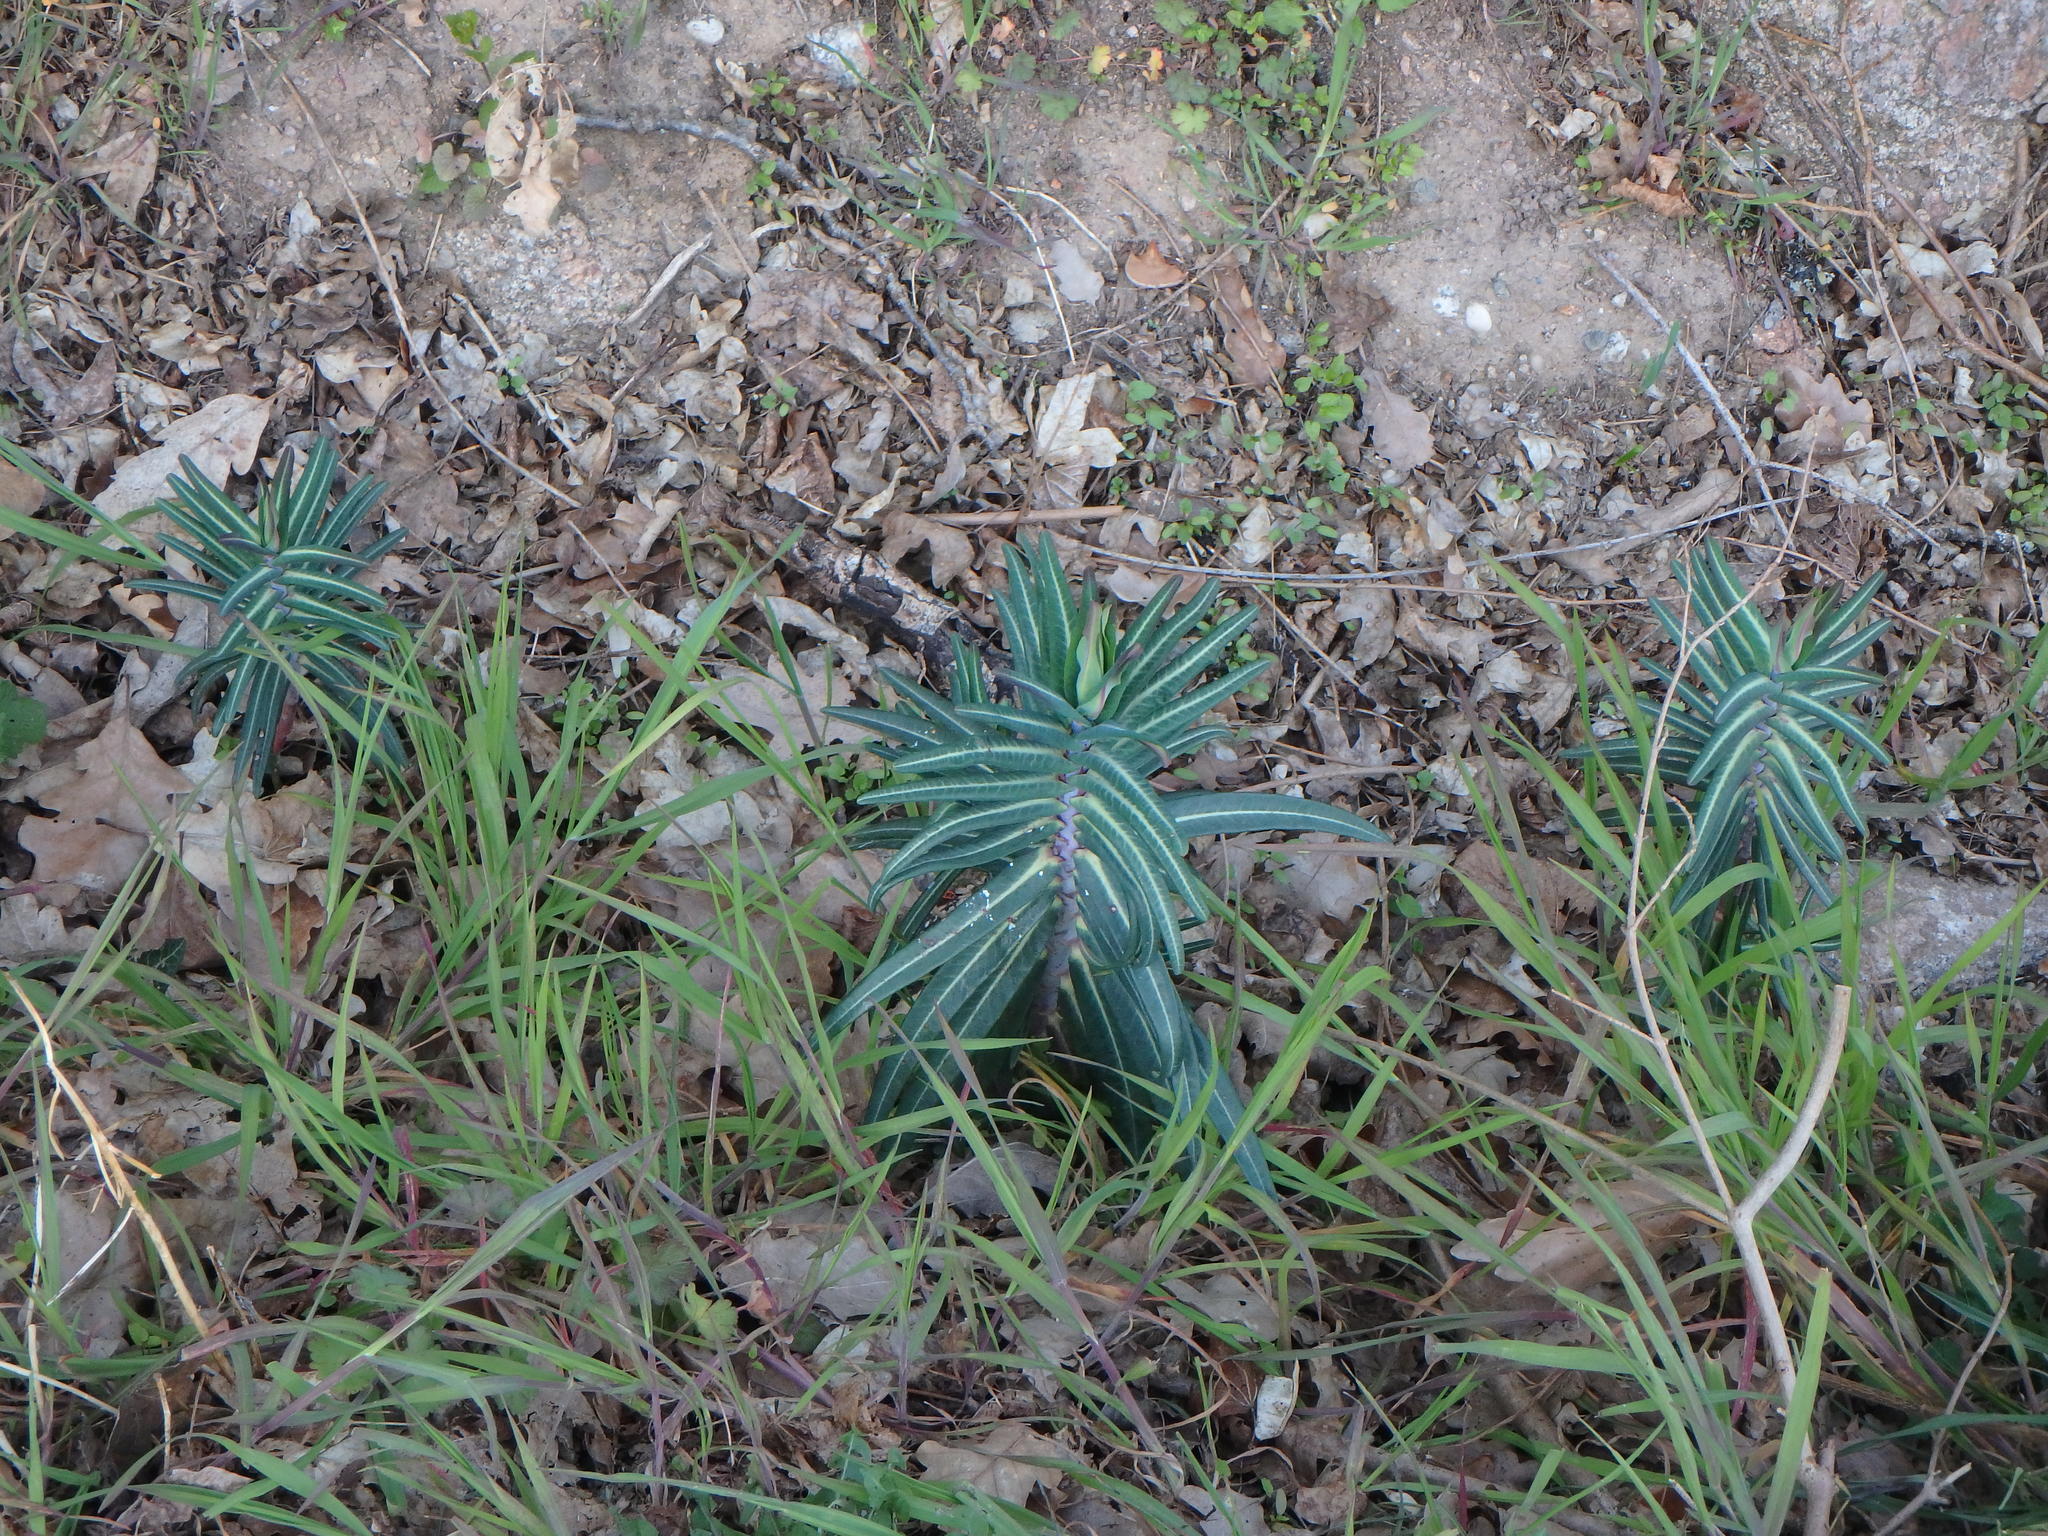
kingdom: Plantae
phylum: Tracheophyta
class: Magnoliopsida
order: Malpighiales
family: Euphorbiaceae
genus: Euphorbia
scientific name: Euphorbia lathyris
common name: Caper spurge
